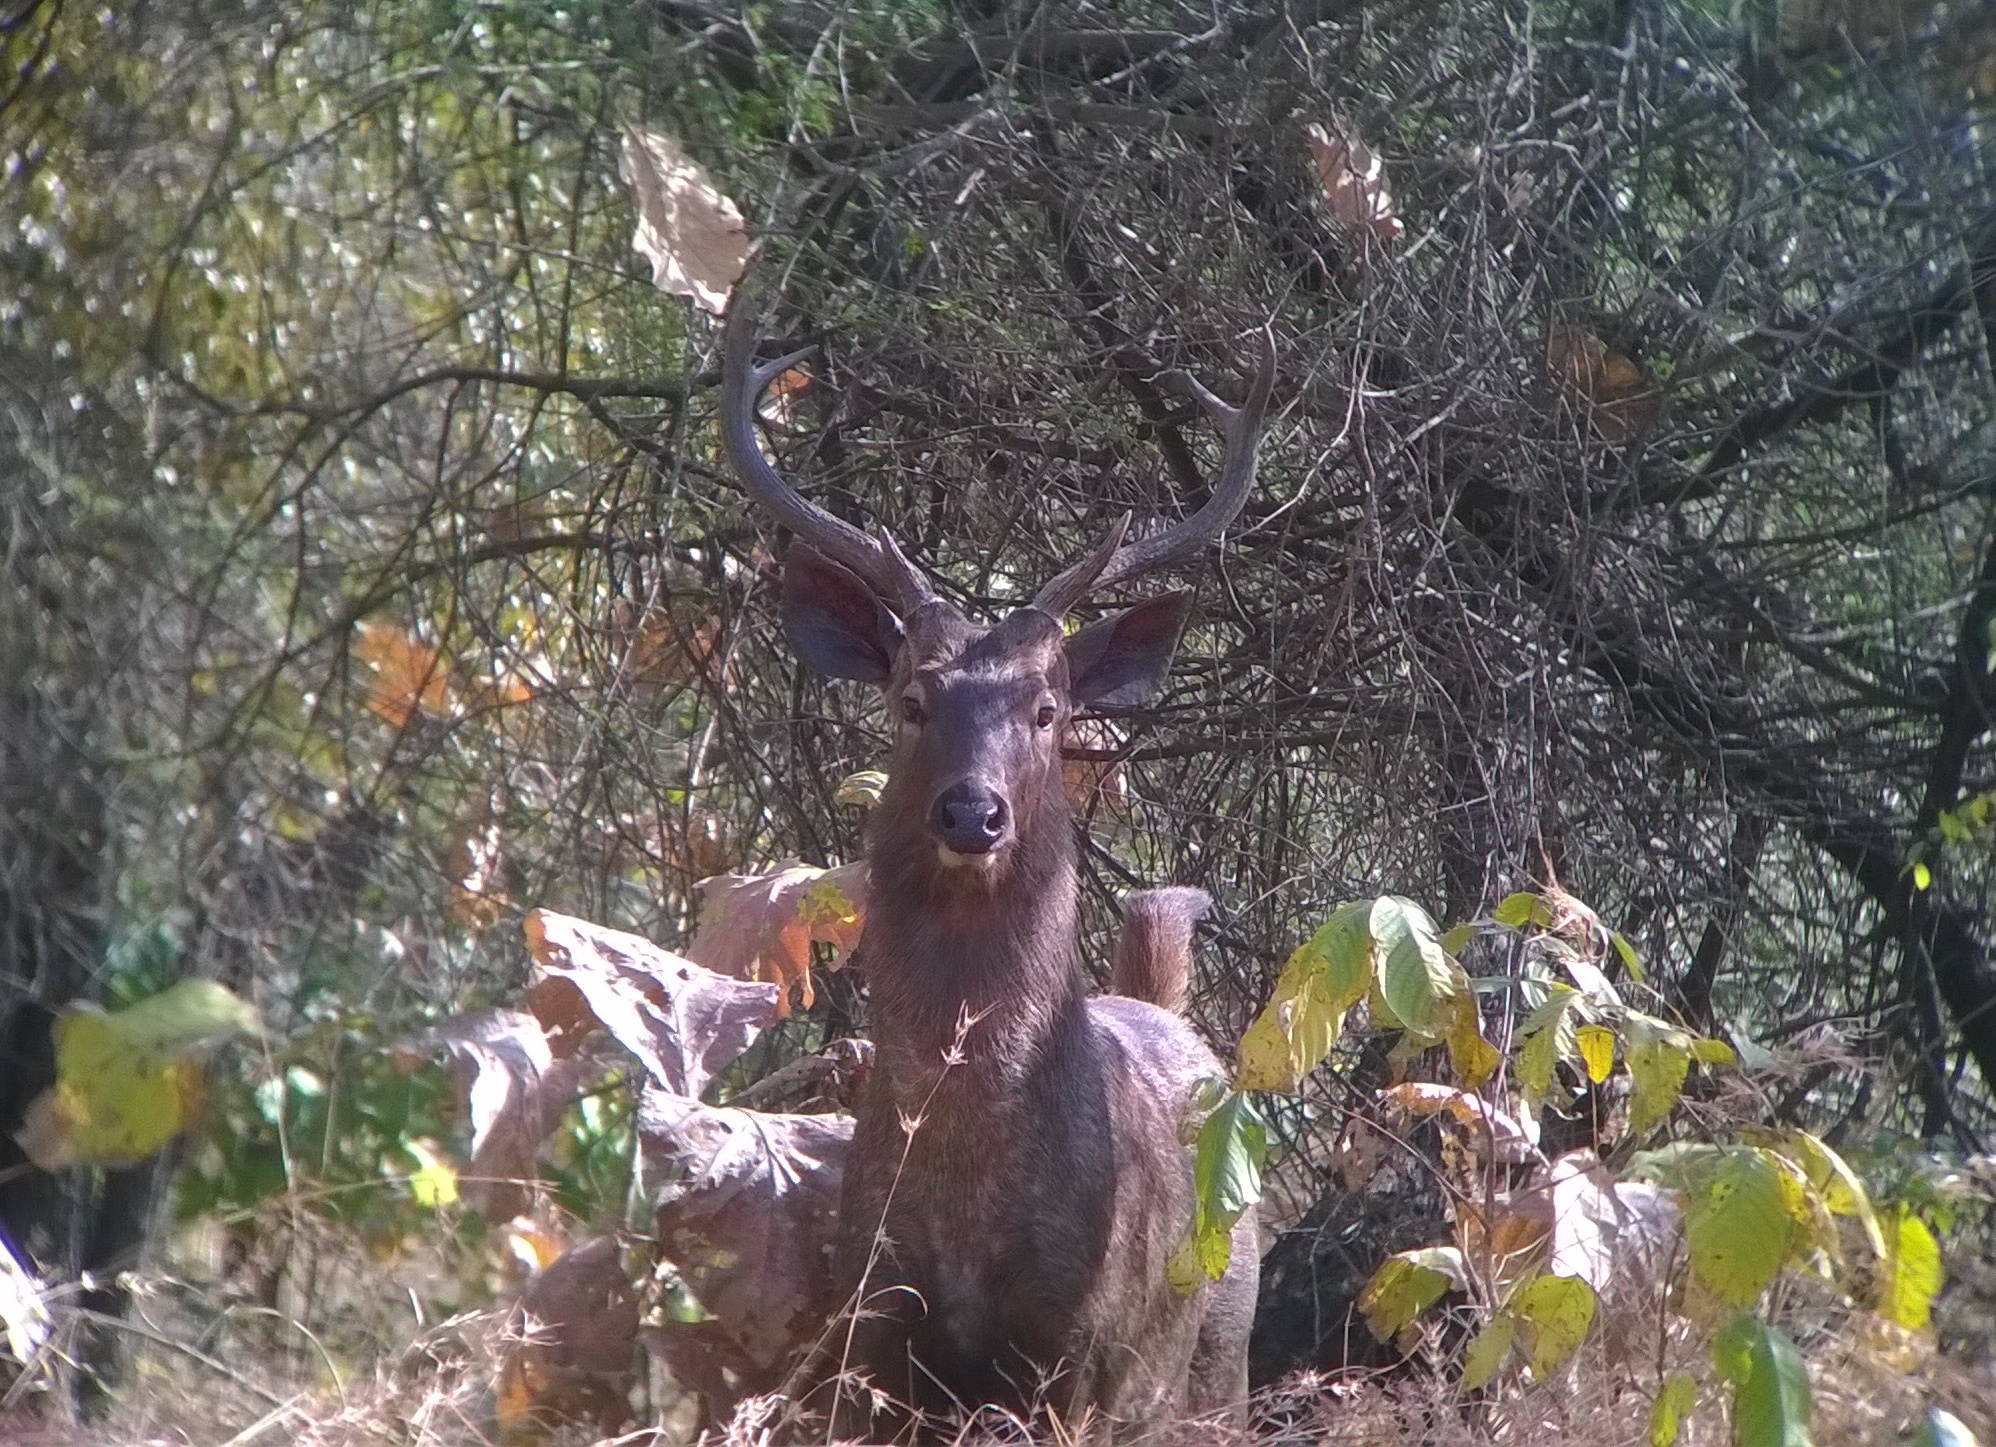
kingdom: Animalia
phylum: Chordata
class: Mammalia
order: Artiodactyla
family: Cervidae
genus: Rusa
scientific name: Rusa unicolor
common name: Sambar
